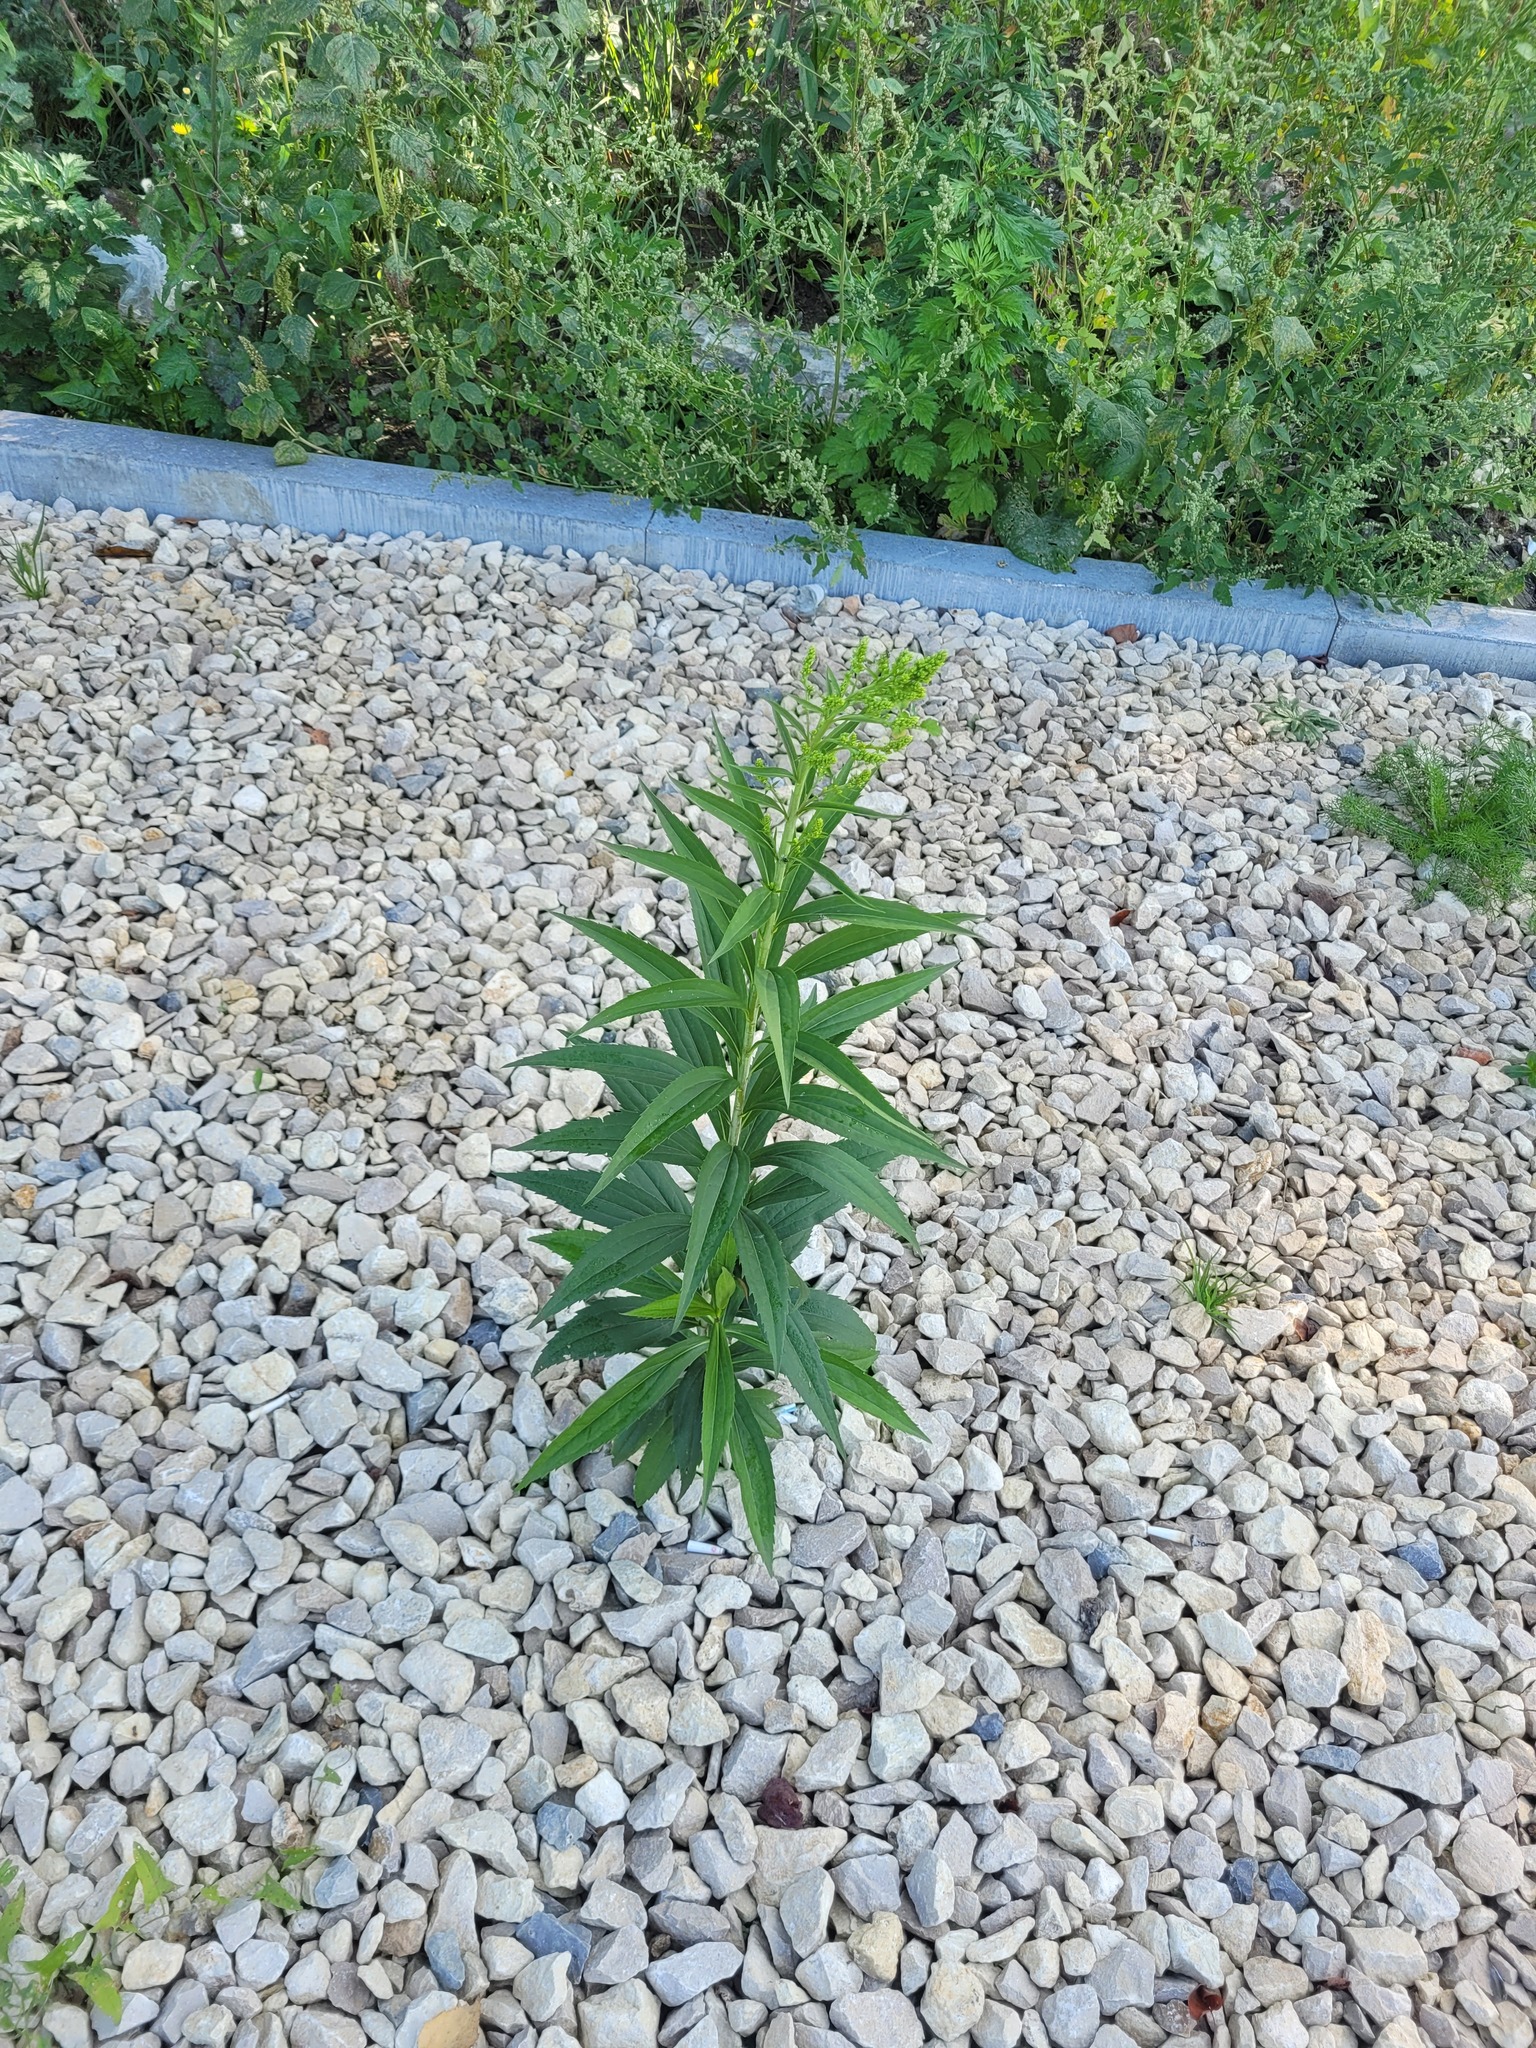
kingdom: Plantae
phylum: Tracheophyta
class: Magnoliopsida
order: Asterales
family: Asteraceae
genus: Solidago
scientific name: Solidago gigantea
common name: Giant goldenrod
